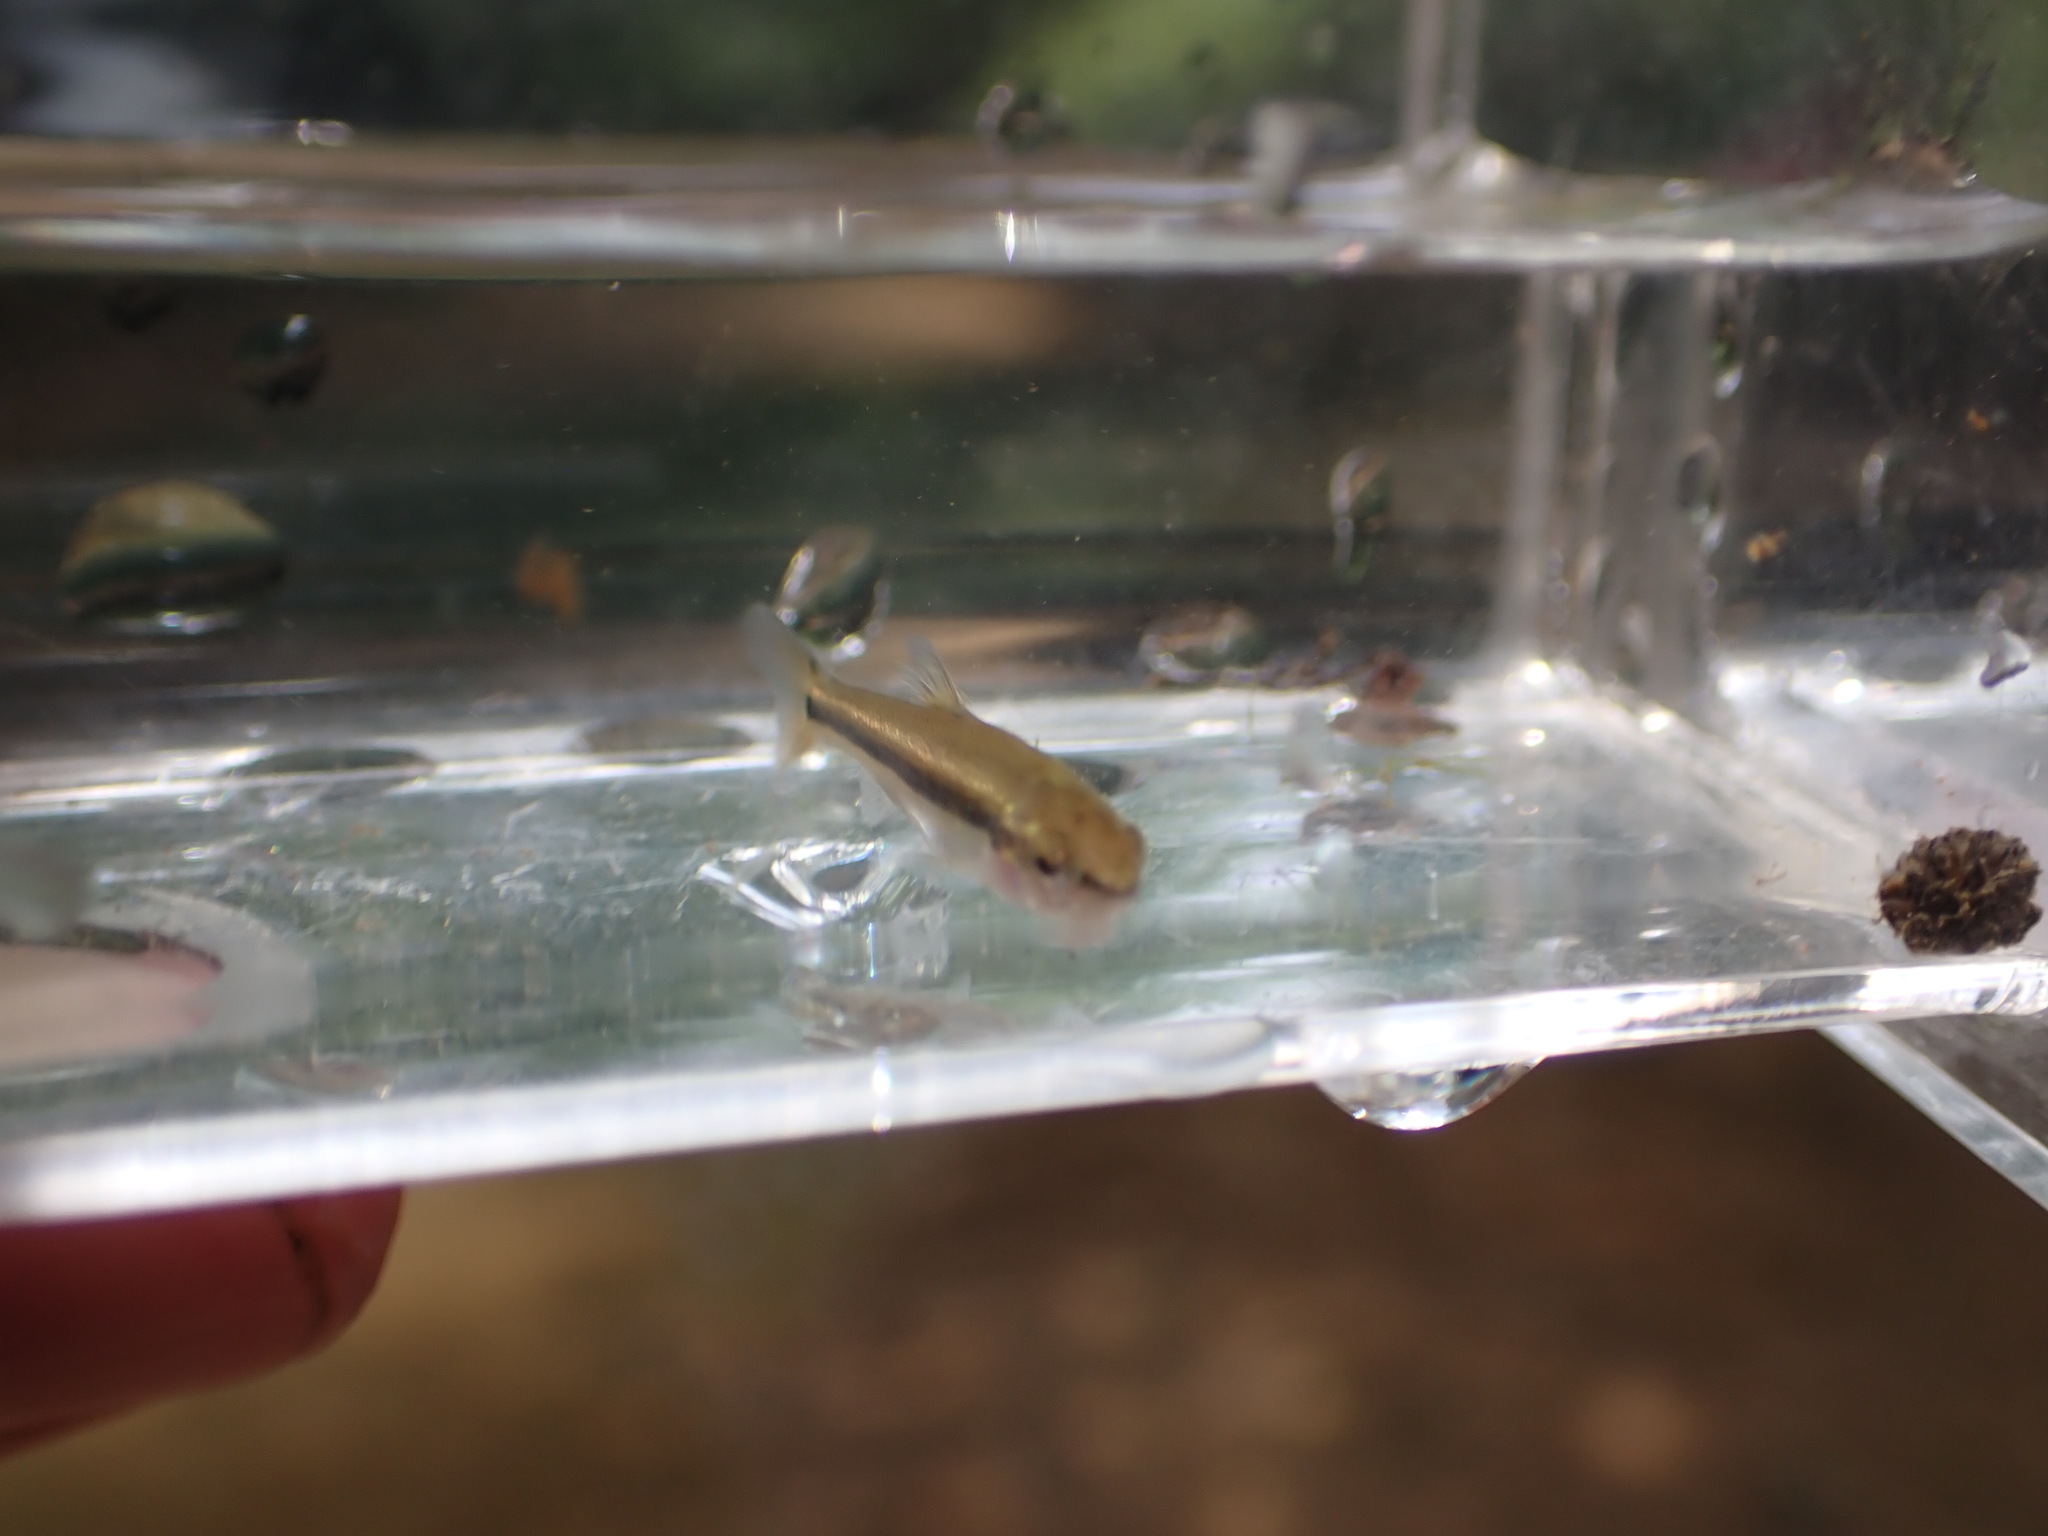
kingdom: Animalia
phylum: Chordata
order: Cypriniformes
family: Cyprinidae
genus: Rhinichthys
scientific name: Rhinichthys obtusus
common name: Western blacknose dace
